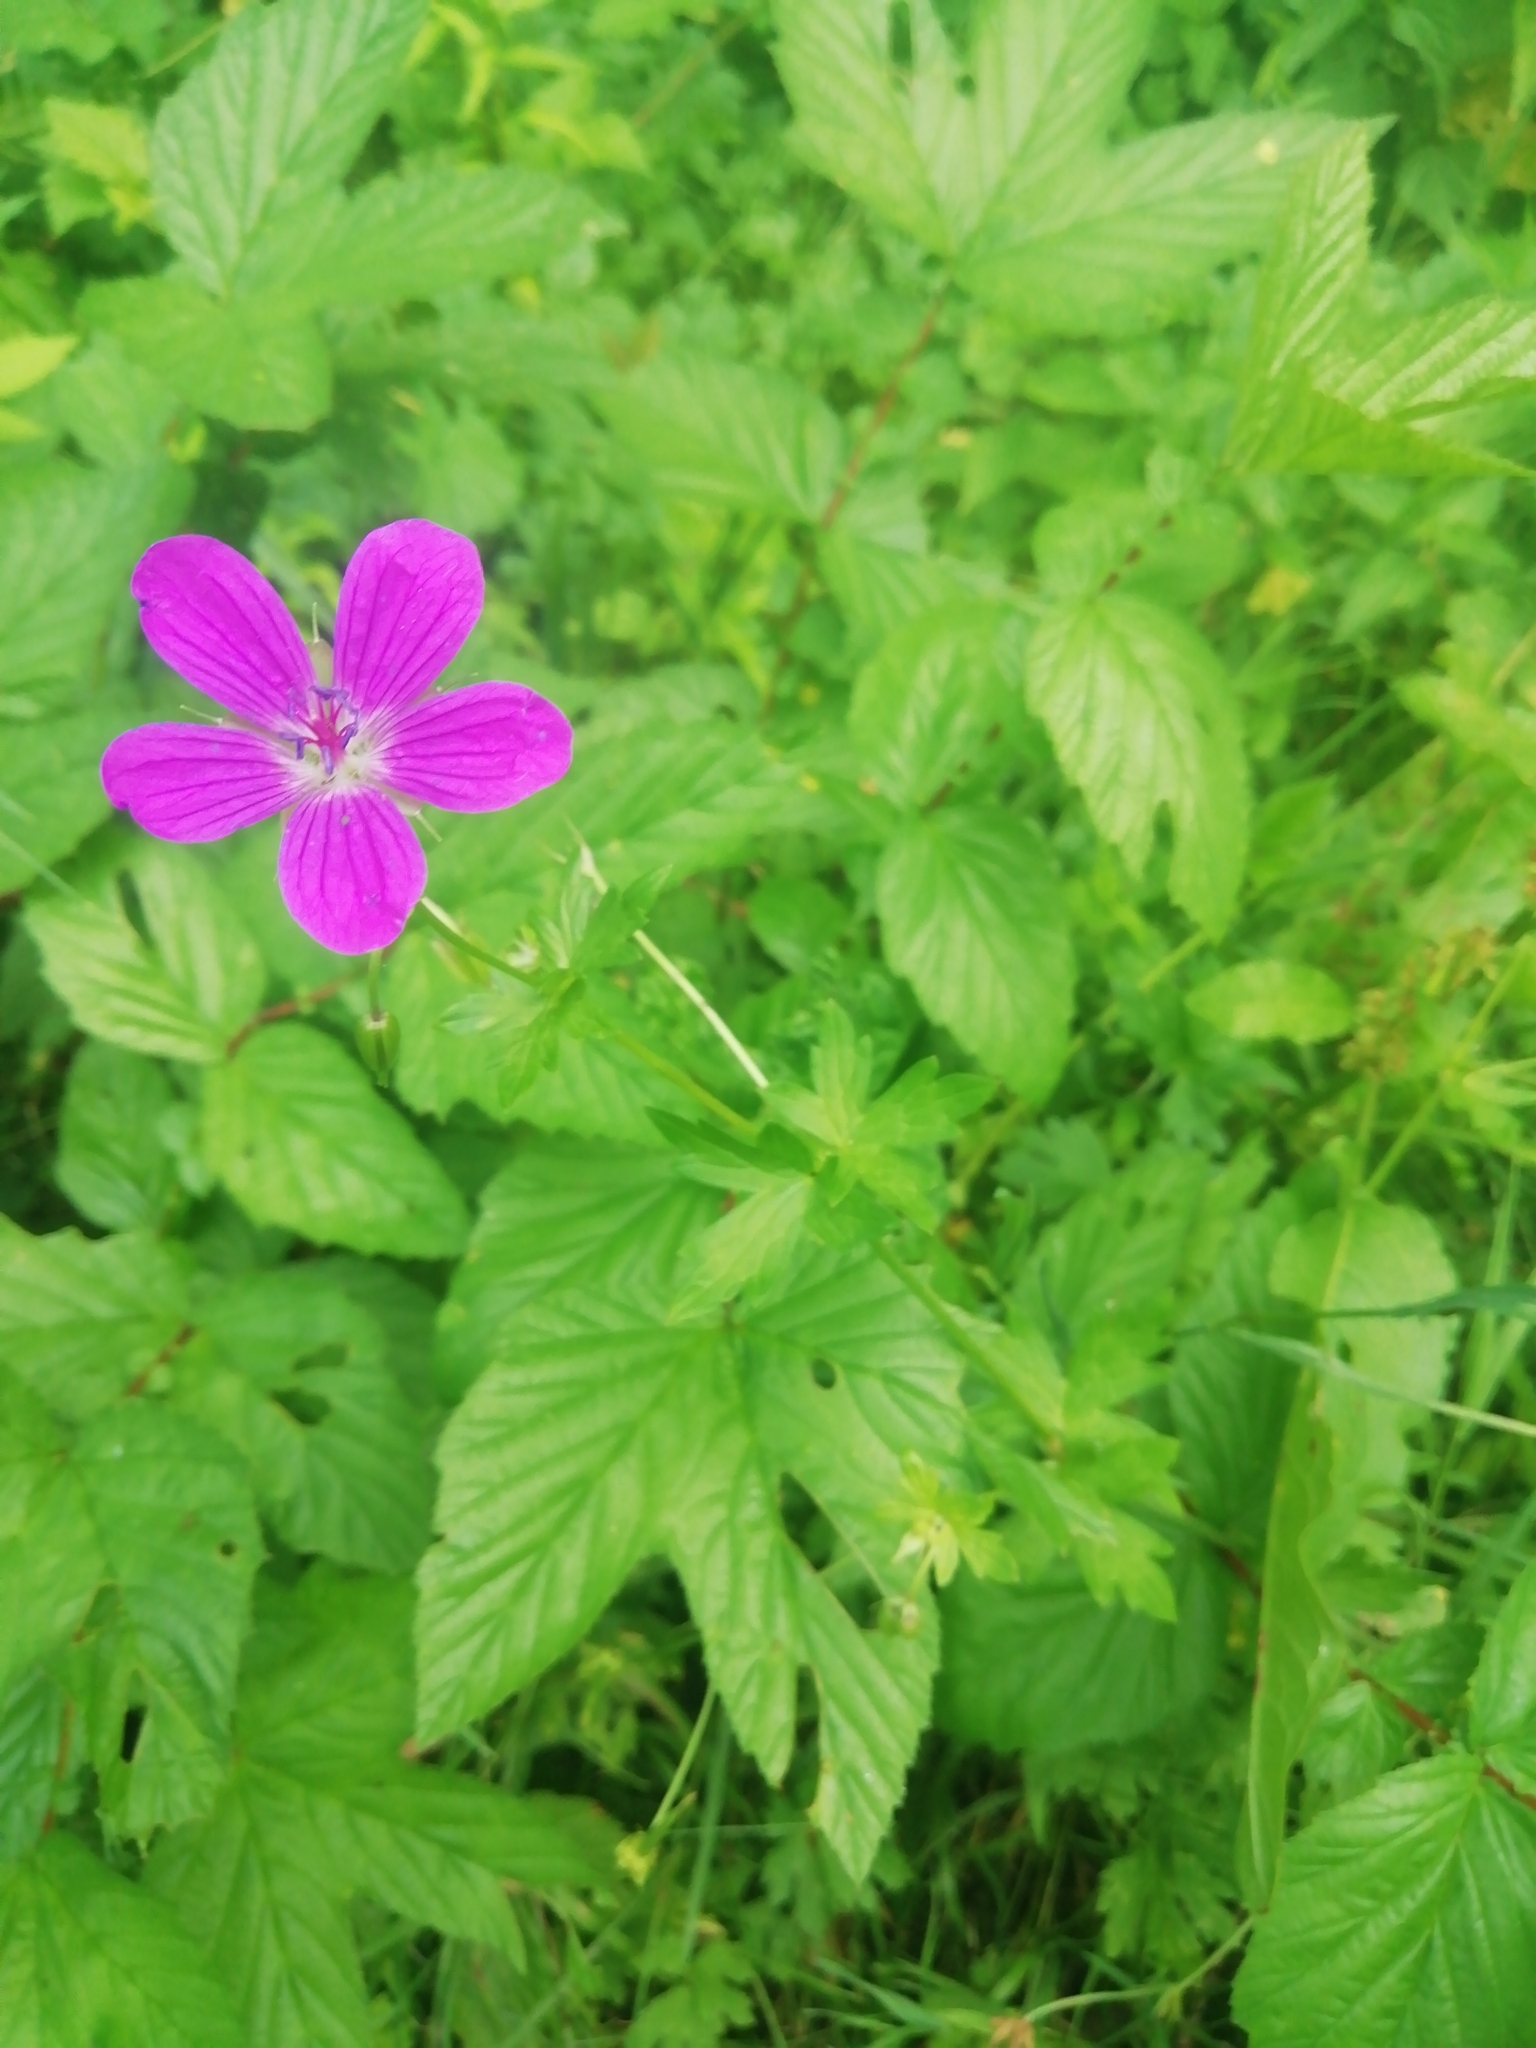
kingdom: Plantae
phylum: Tracheophyta
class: Magnoliopsida
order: Geraniales
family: Geraniaceae
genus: Geranium
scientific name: Geranium palustre
